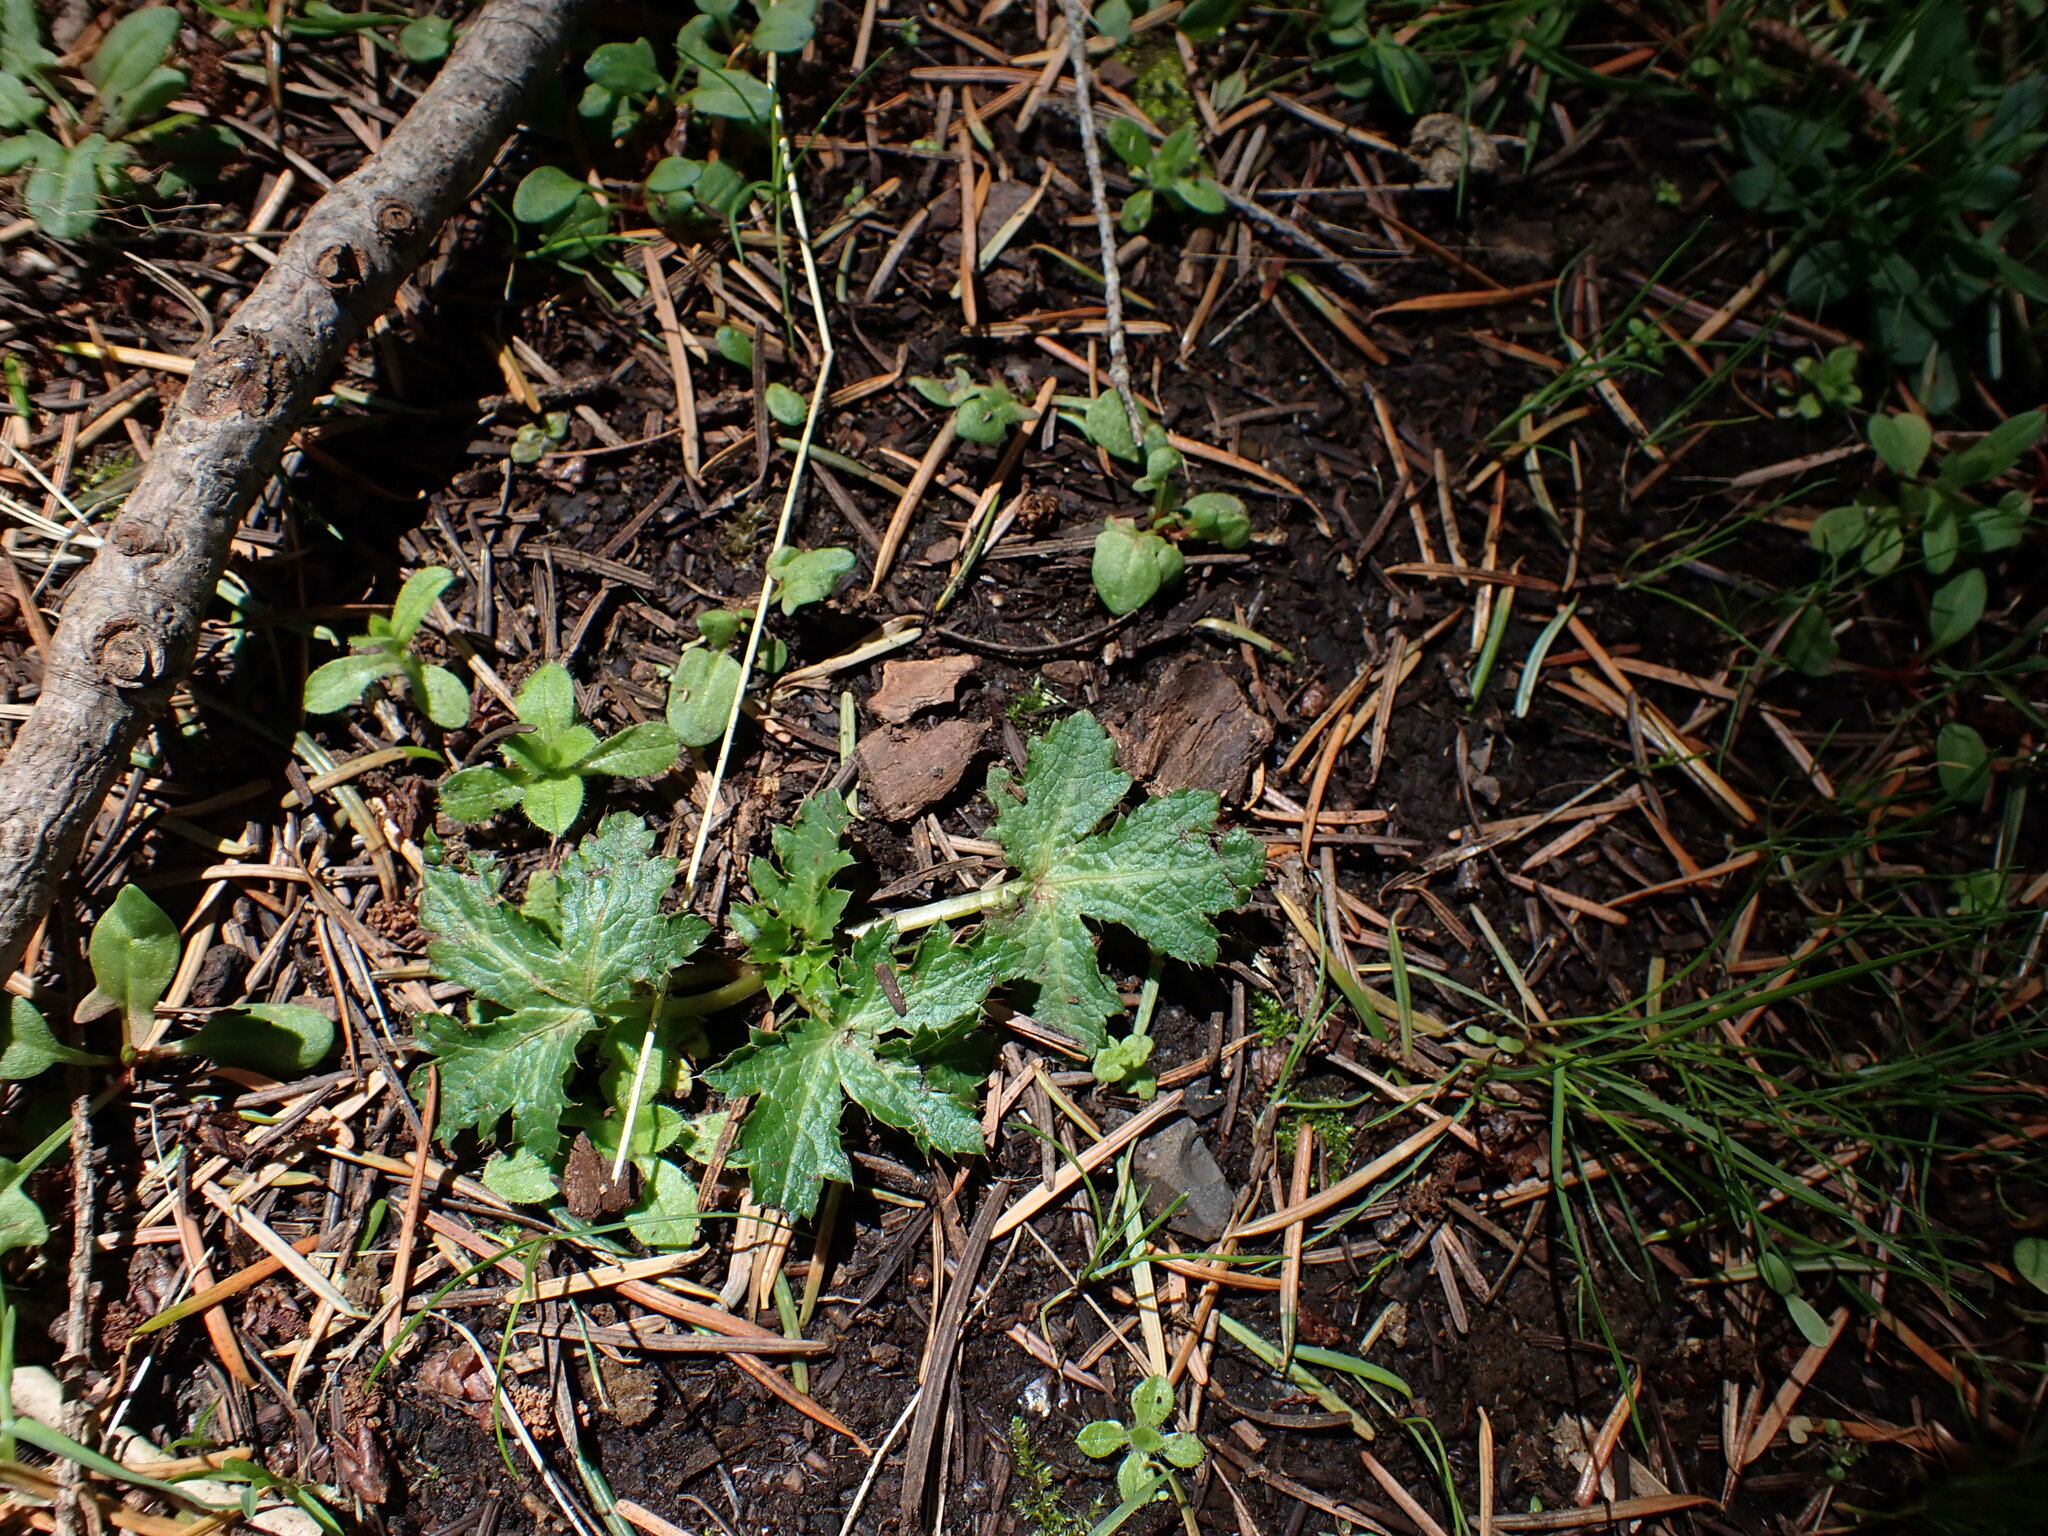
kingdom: Plantae
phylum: Tracheophyta
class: Magnoliopsida
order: Apiales
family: Apiaceae
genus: Sanicula
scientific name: Sanicula crassicaulis
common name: Western snakeroot
